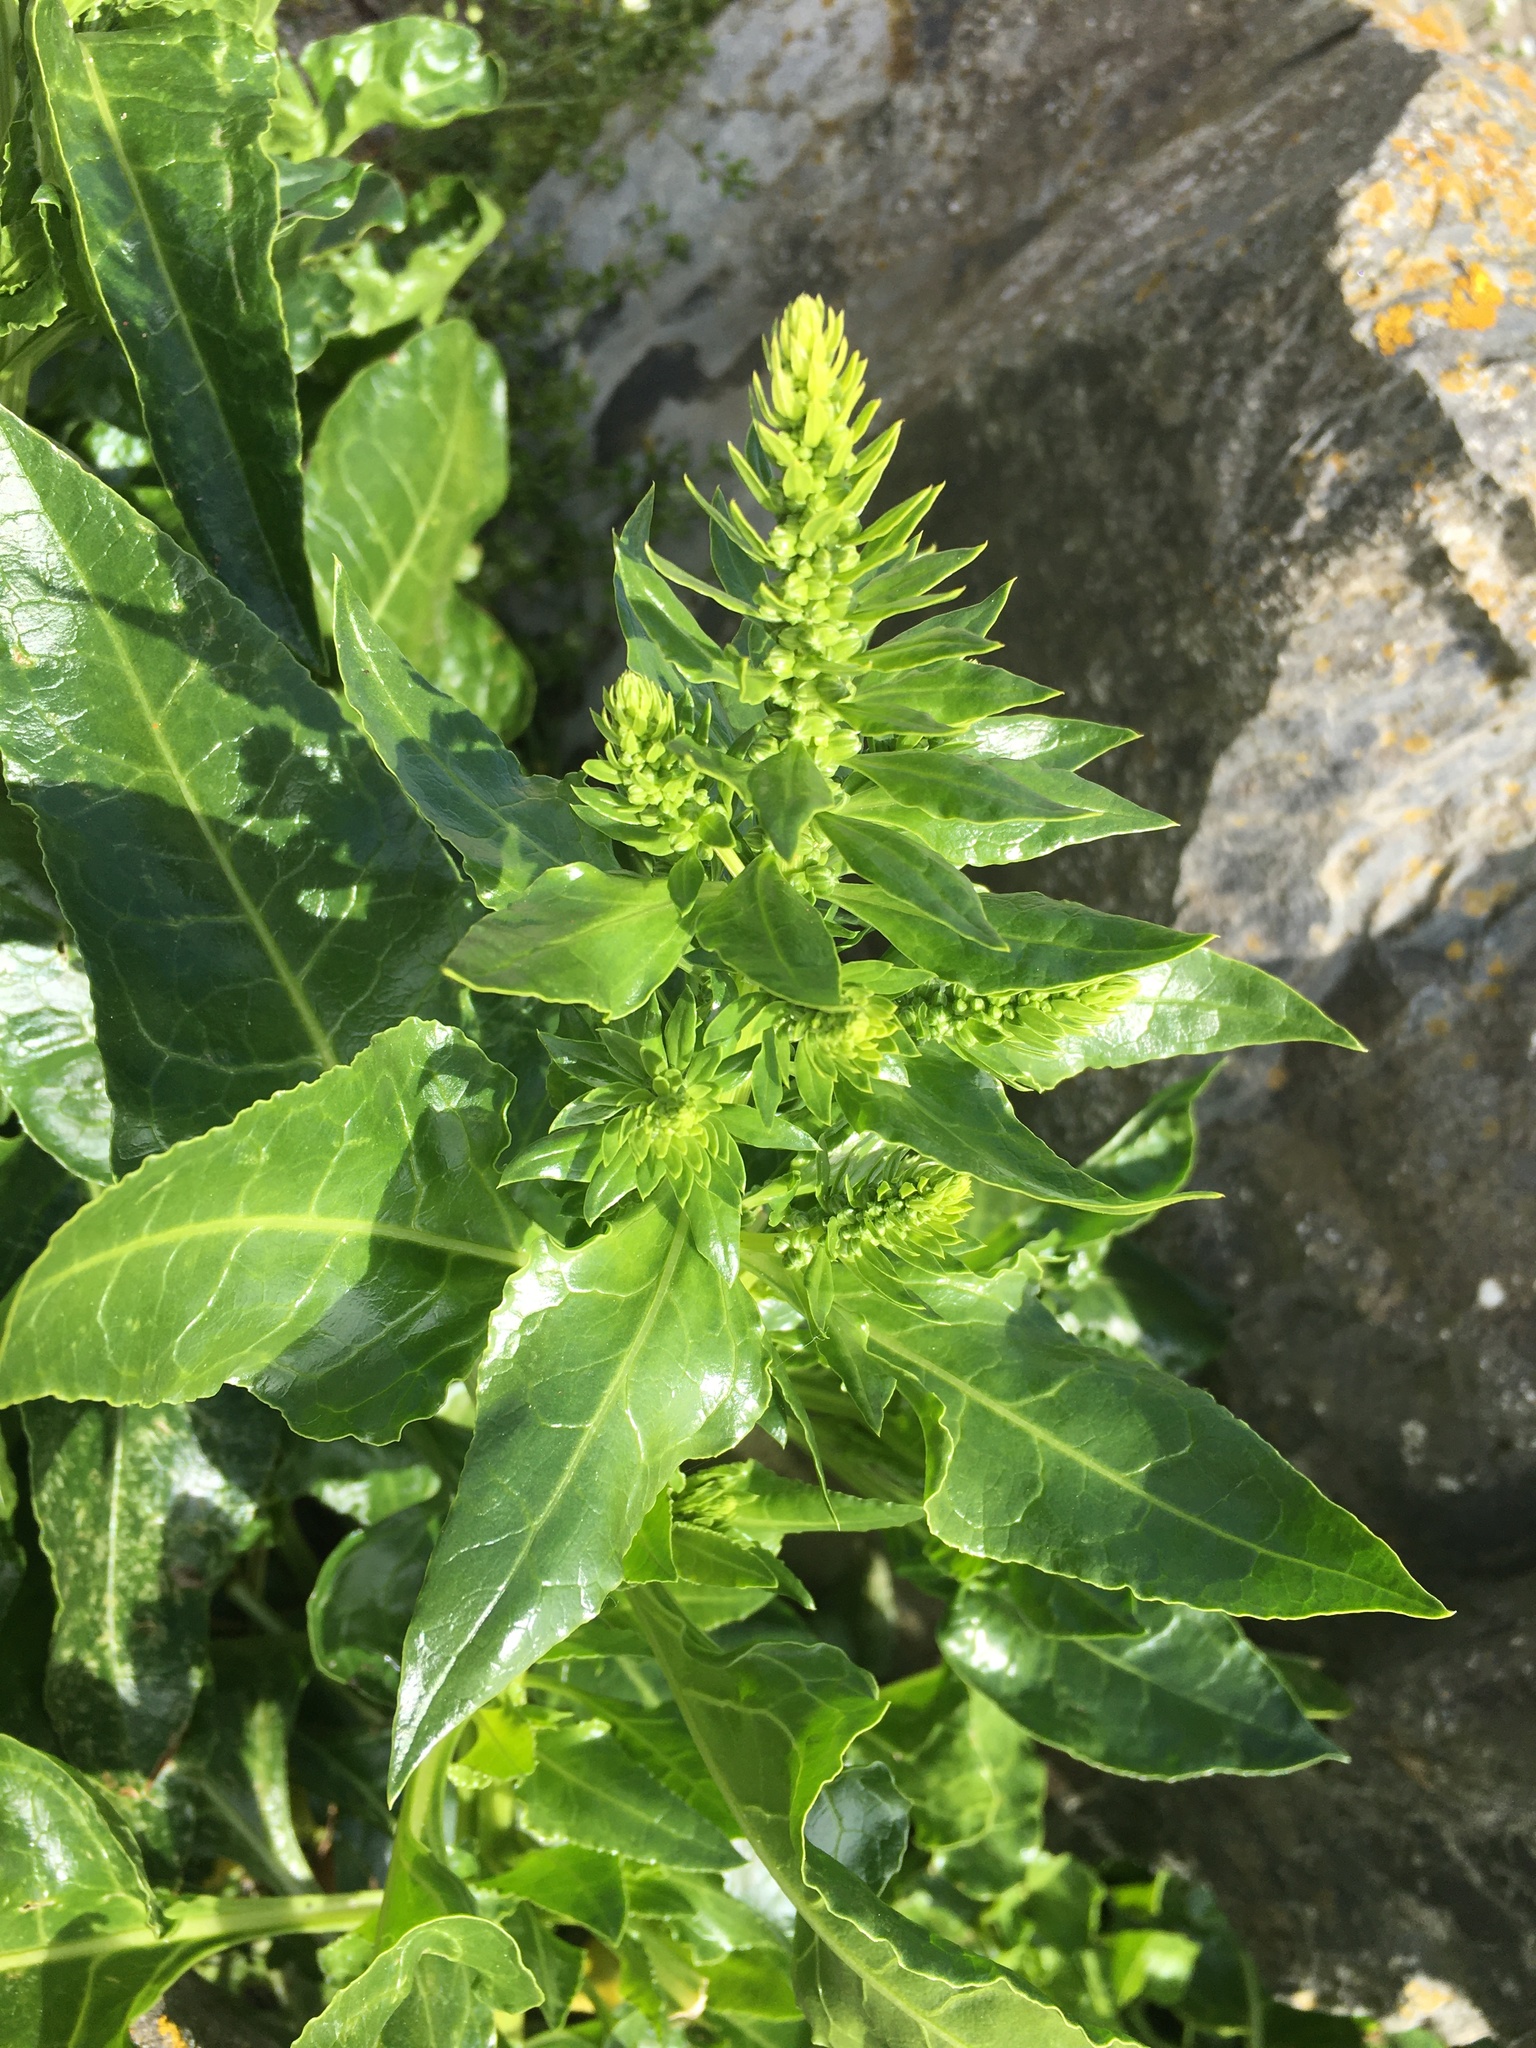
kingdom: Plantae
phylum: Tracheophyta
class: Magnoliopsida
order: Caryophyllales
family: Amaranthaceae
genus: Beta
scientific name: Beta vulgaris
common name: Beet
